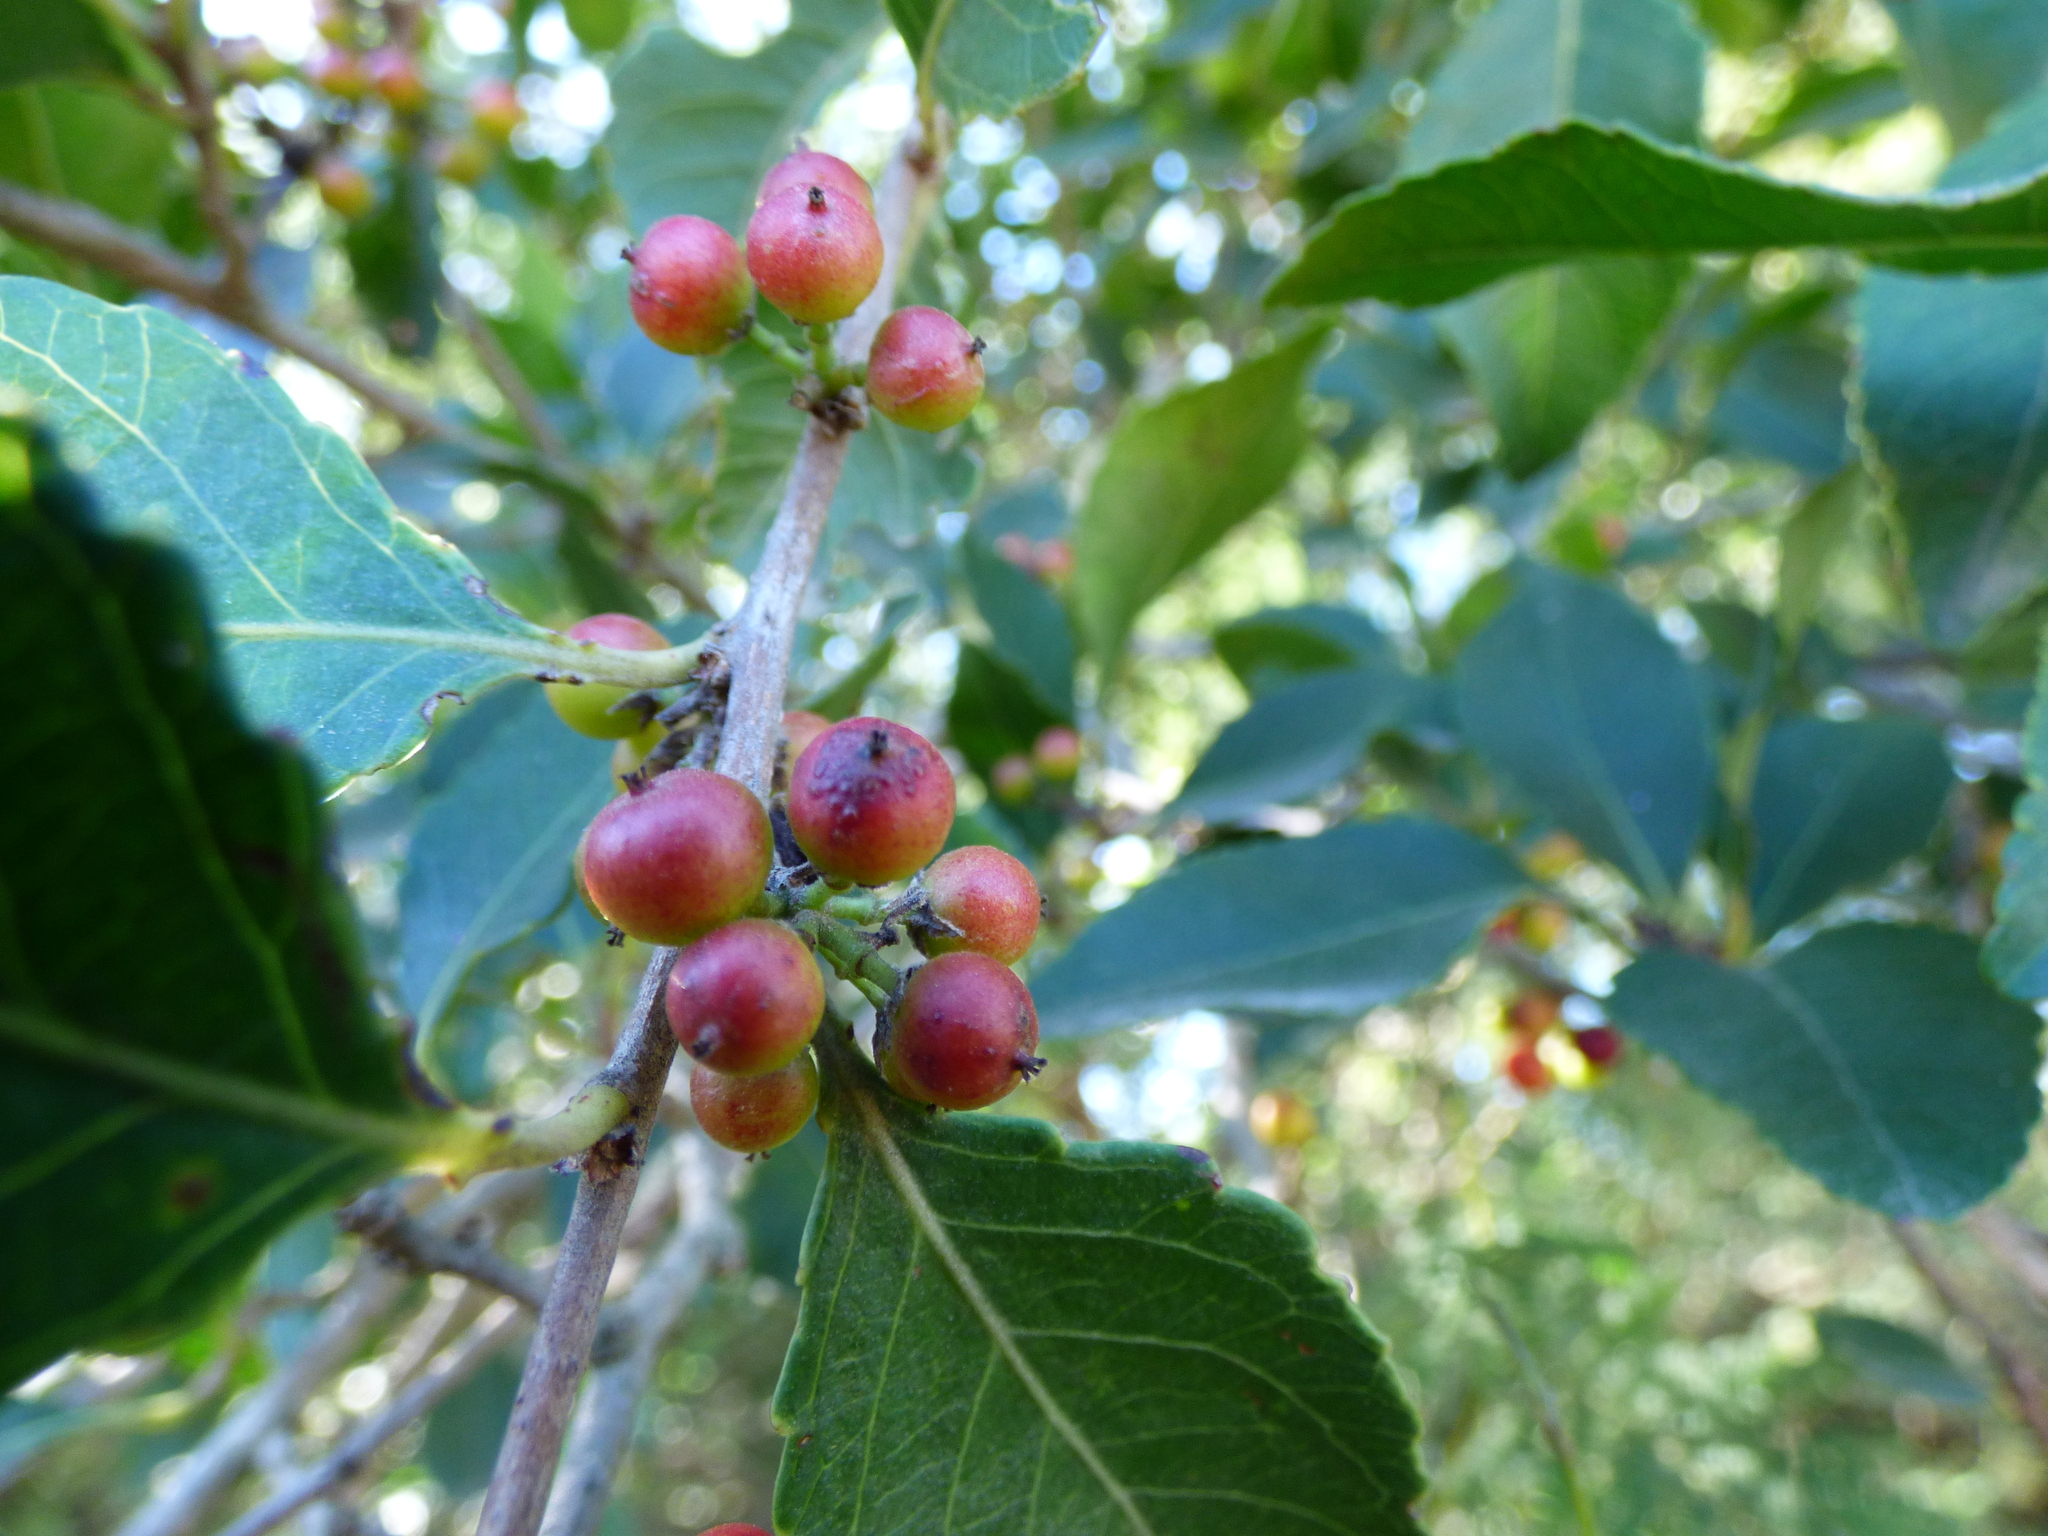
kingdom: Plantae
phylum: Tracheophyta
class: Magnoliopsida
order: Sapindales
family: Sapindaceae
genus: Paullinia
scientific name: Paullinia elegans
